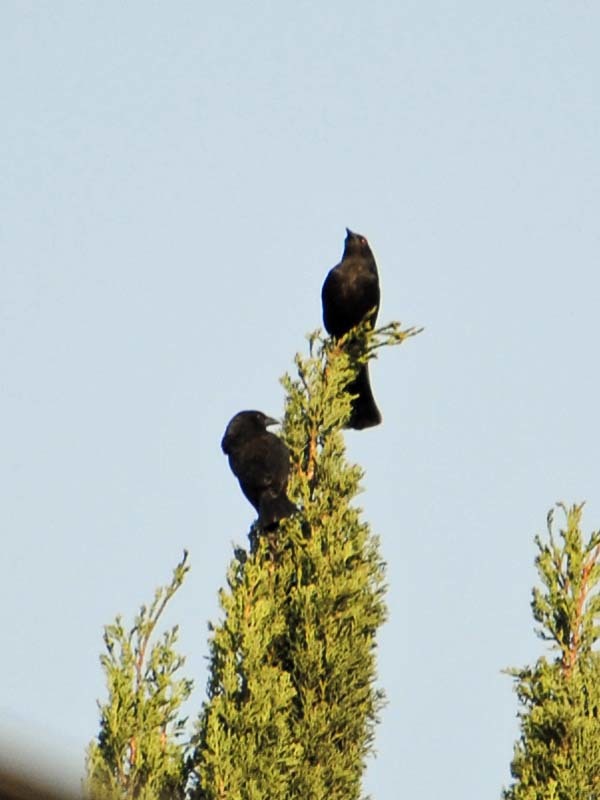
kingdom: Animalia
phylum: Chordata
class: Aves
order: Passeriformes
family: Icteridae
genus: Molothrus
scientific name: Molothrus aeneus
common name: Bronzed cowbird
